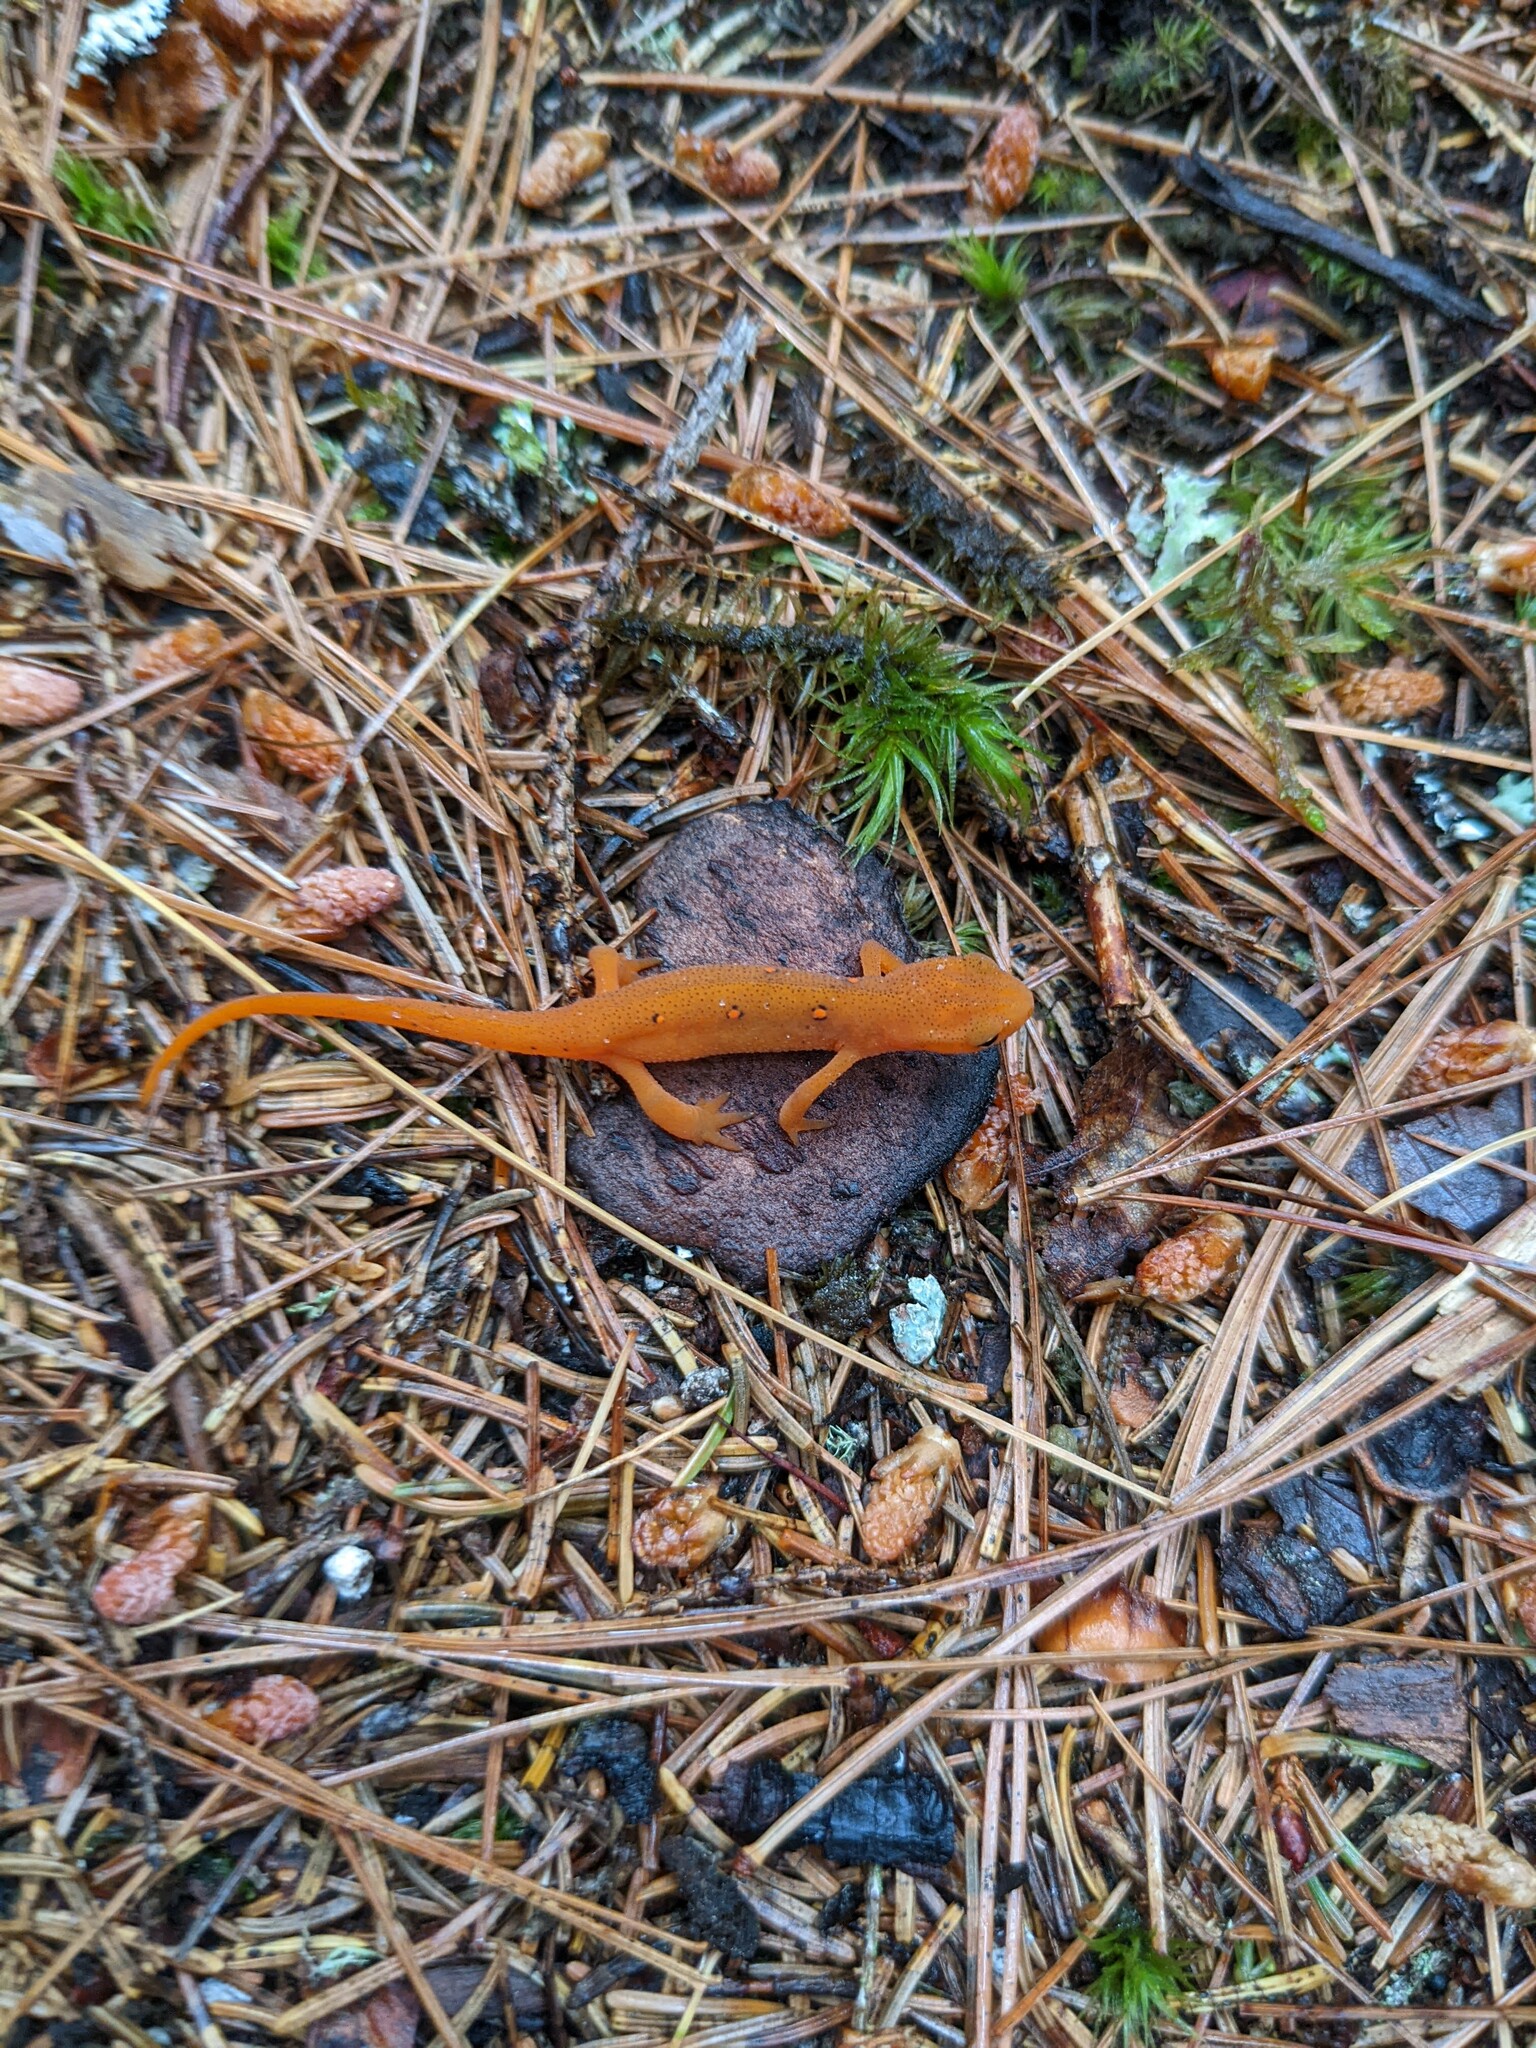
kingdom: Animalia
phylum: Chordata
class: Amphibia
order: Caudata
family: Salamandridae
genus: Notophthalmus
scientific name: Notophthalmus viridescens
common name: Eastern newt
